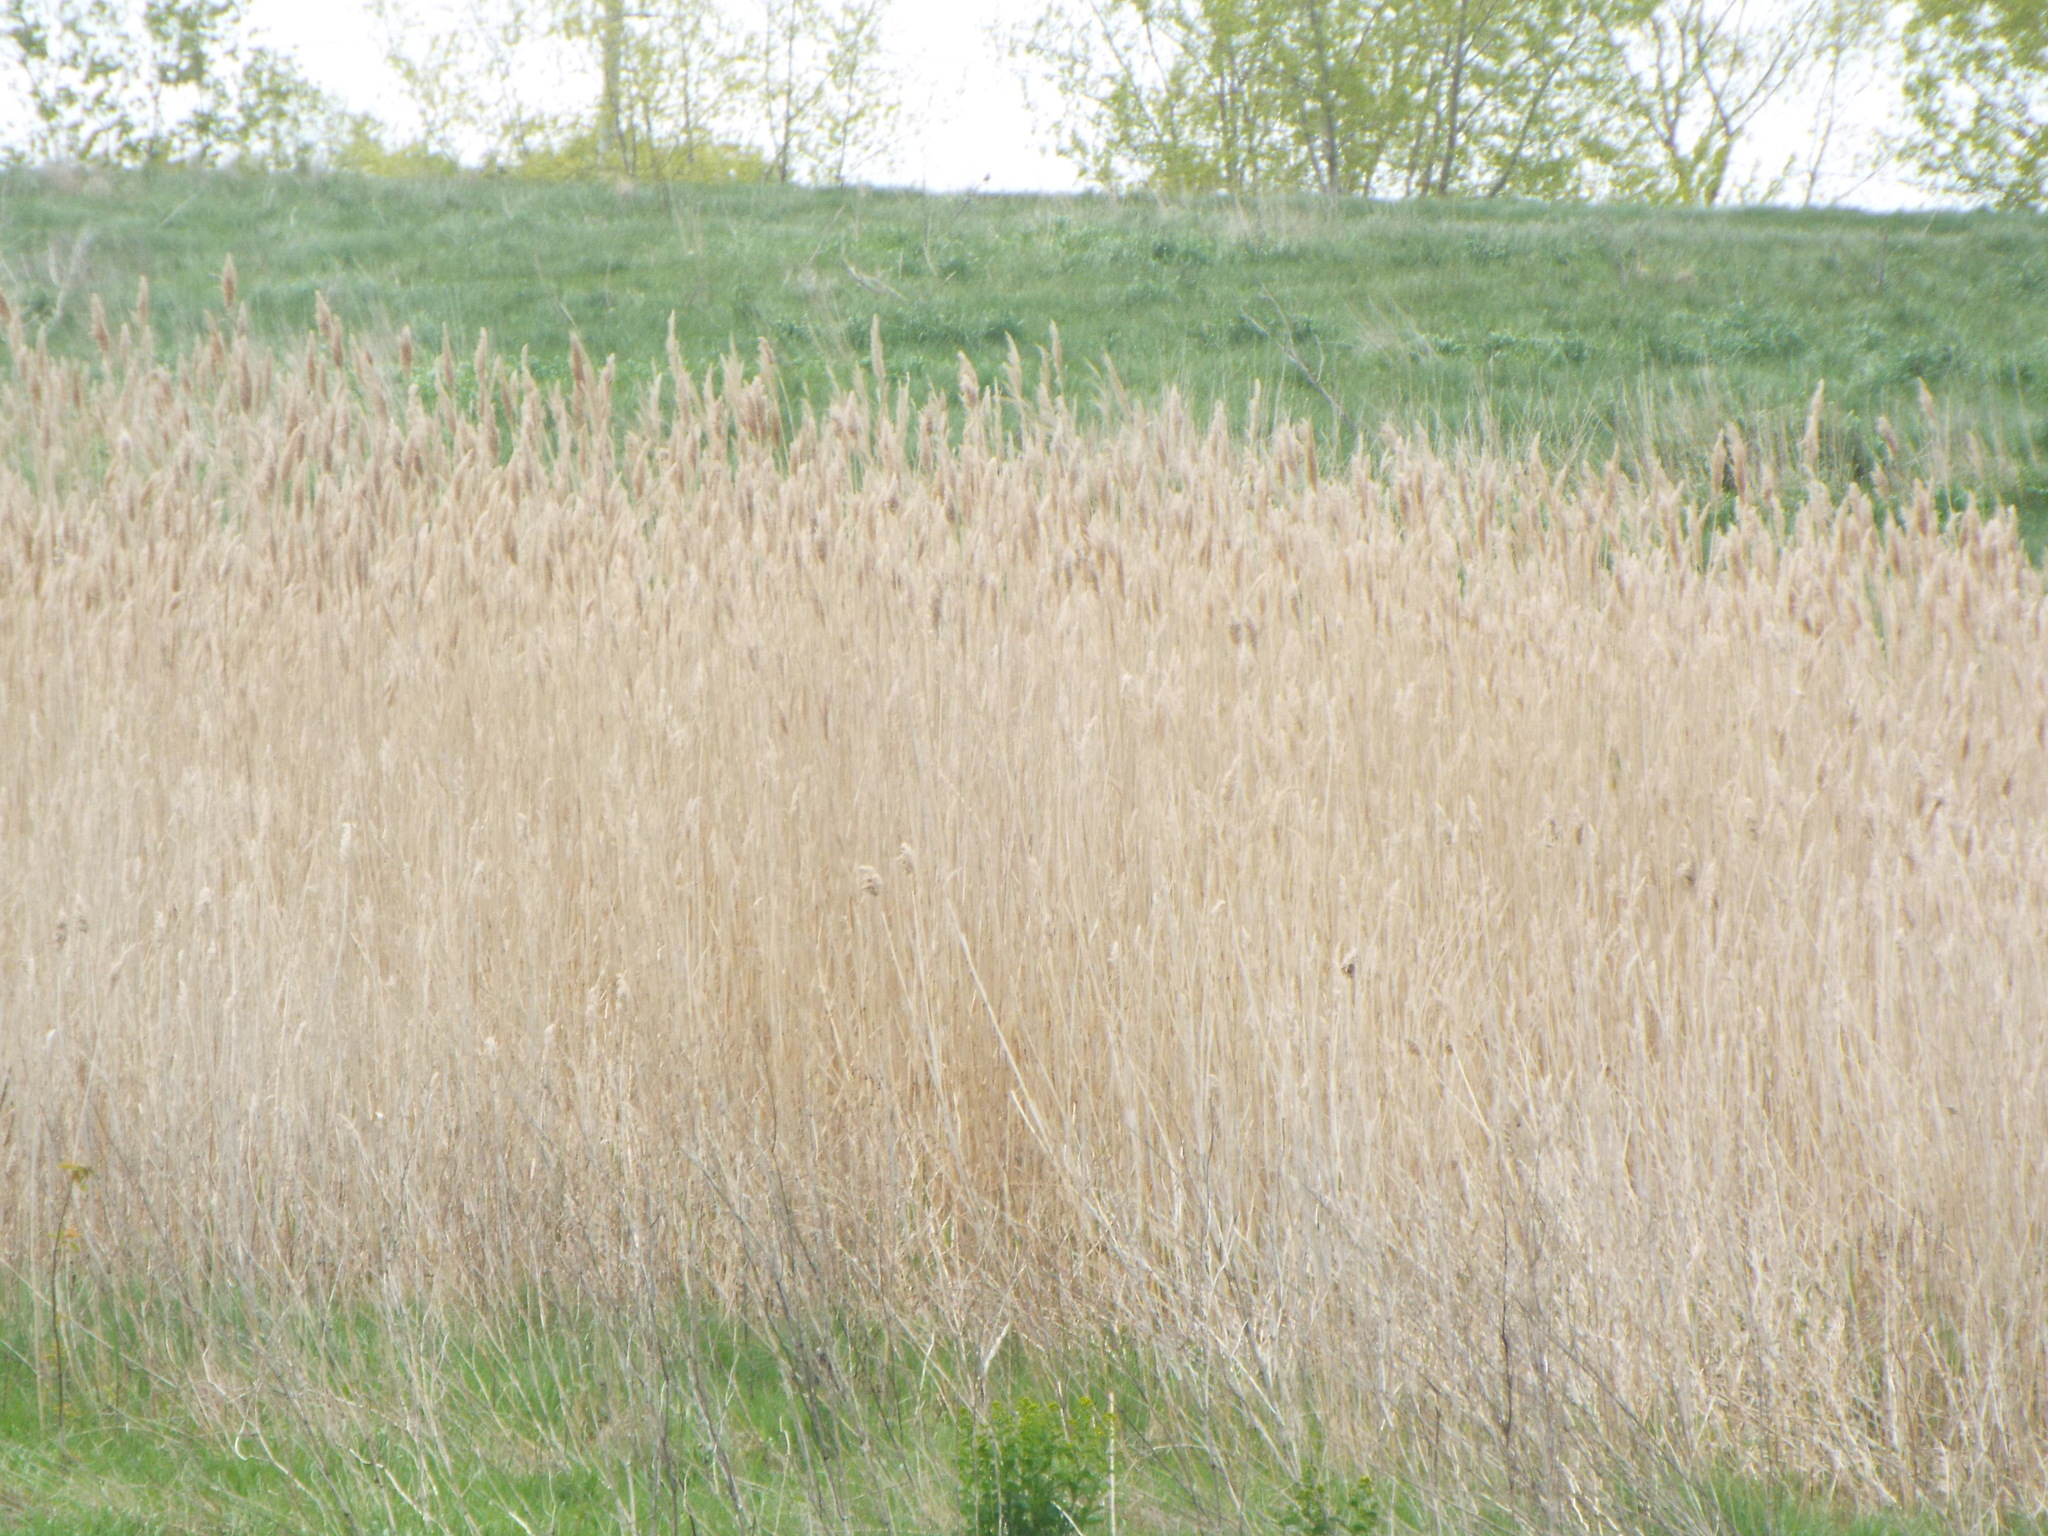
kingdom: Plantae
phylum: Tracheophyta
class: Liliopsida
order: Poales
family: Poaceae
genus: Phragmites
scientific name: Phragmites australis
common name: Common reed
